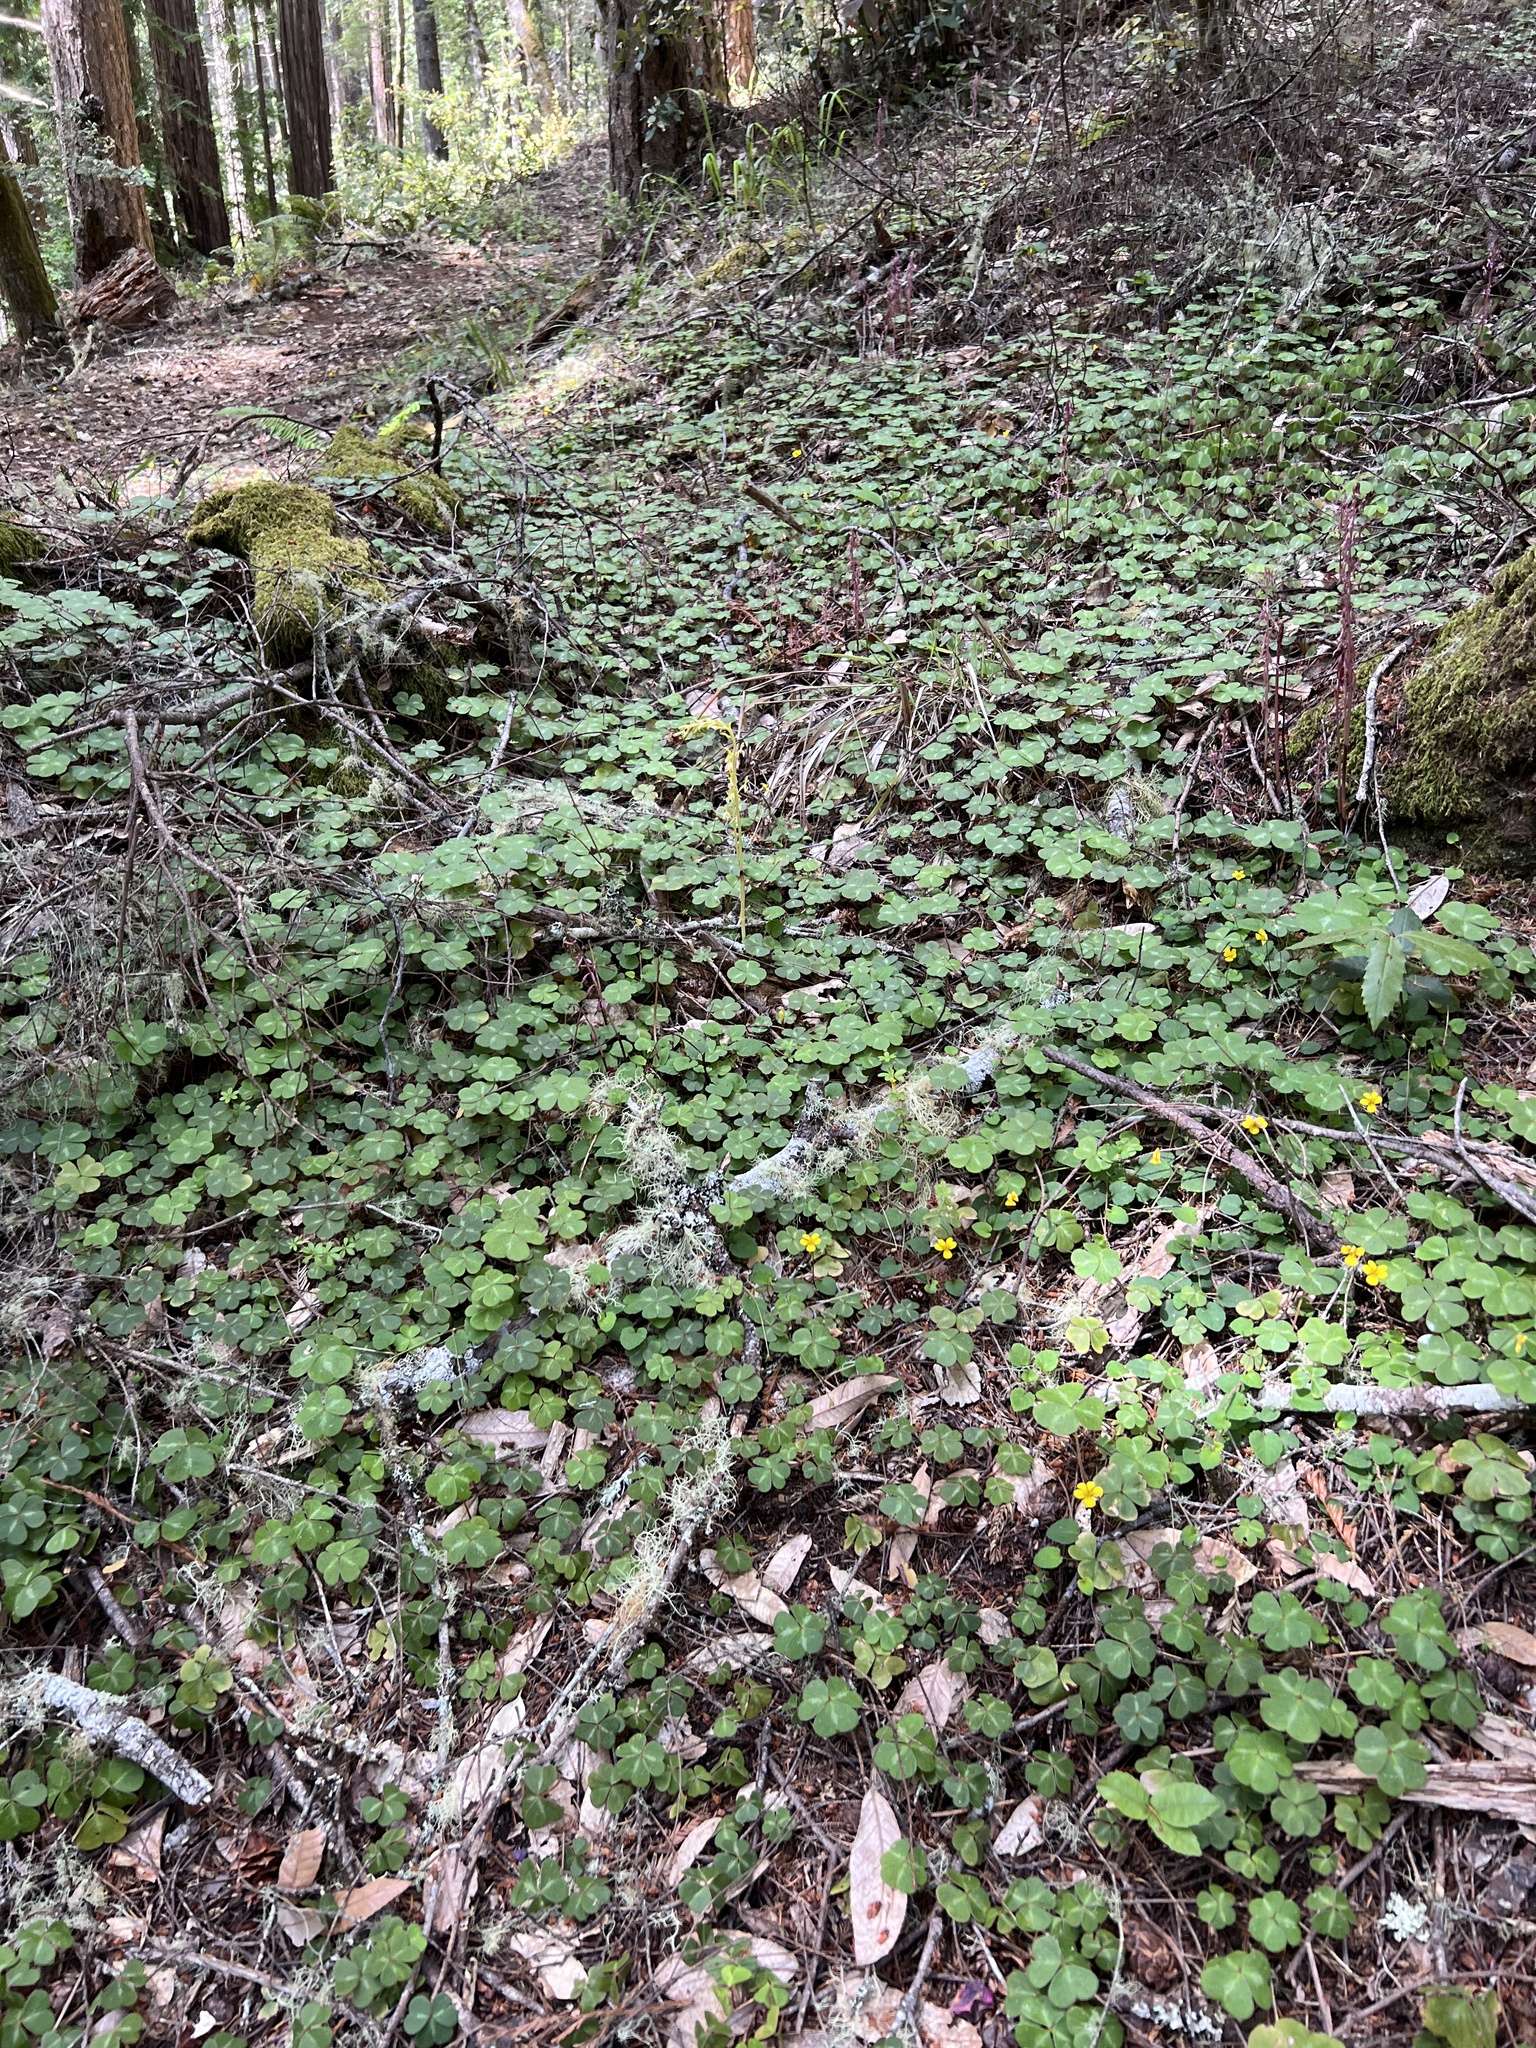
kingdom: Plantae
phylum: Tracheophyta
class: Liliopsida
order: Asparagales
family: Orchidaceae
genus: Corallorhiza
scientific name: Corallorhiza mertensiana
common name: Pacific coralroot
